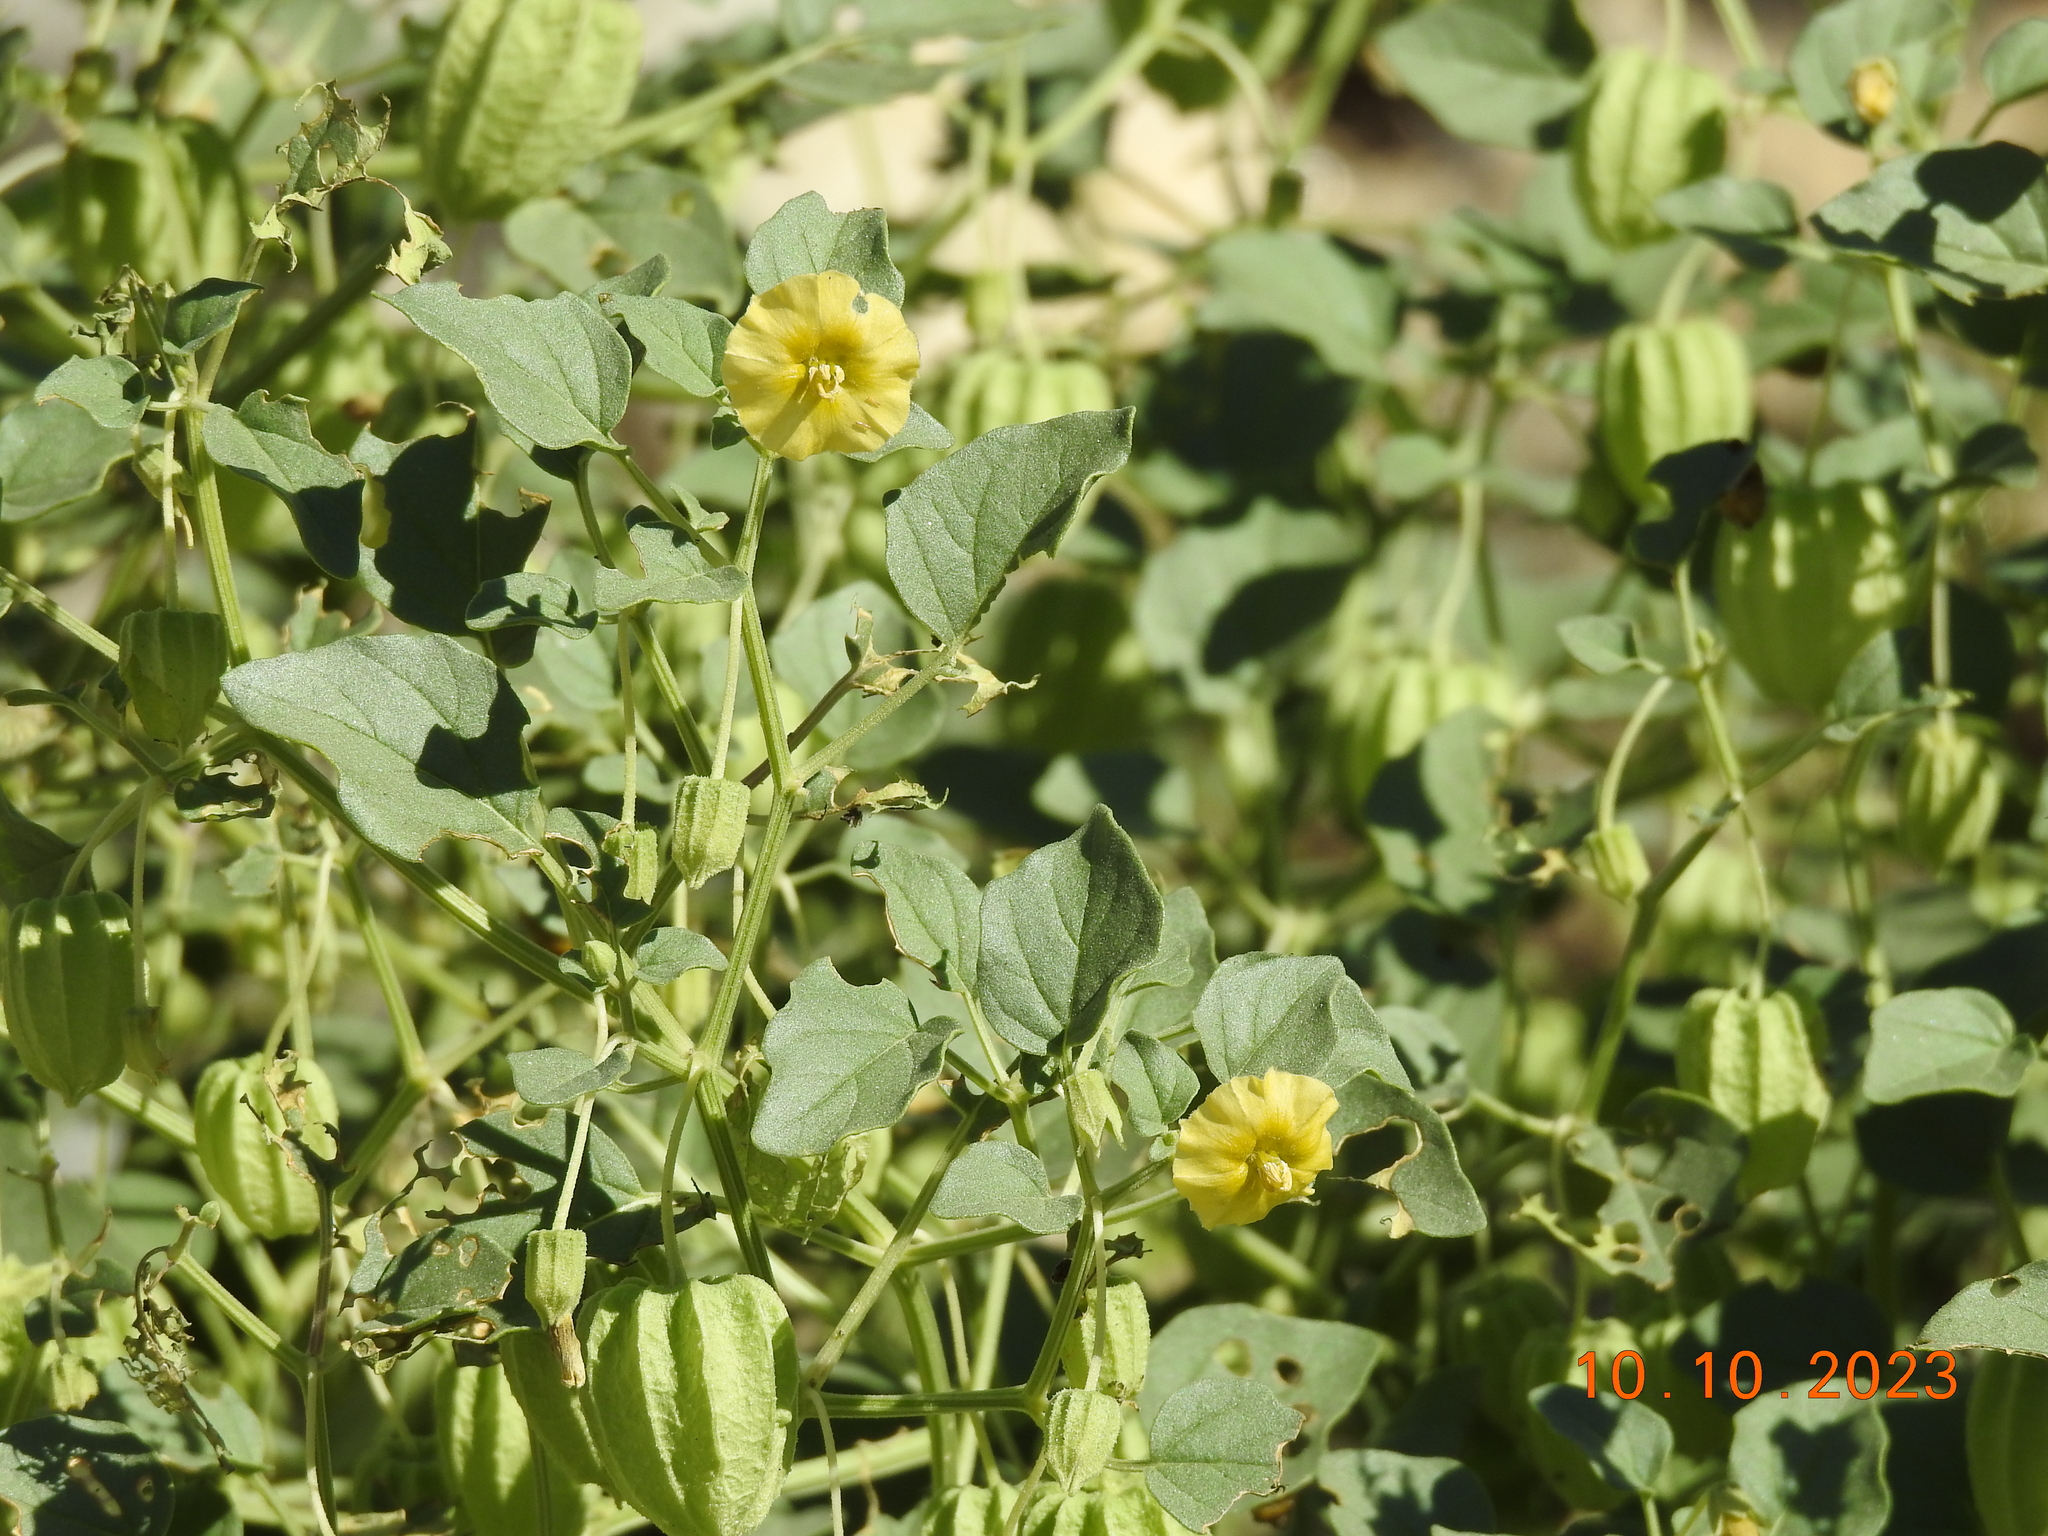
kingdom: Plantae
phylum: Tracheophyta
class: Magnoliopsida
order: Solanales
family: Solanaceae
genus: Physalis
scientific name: Physalis crassifolia
